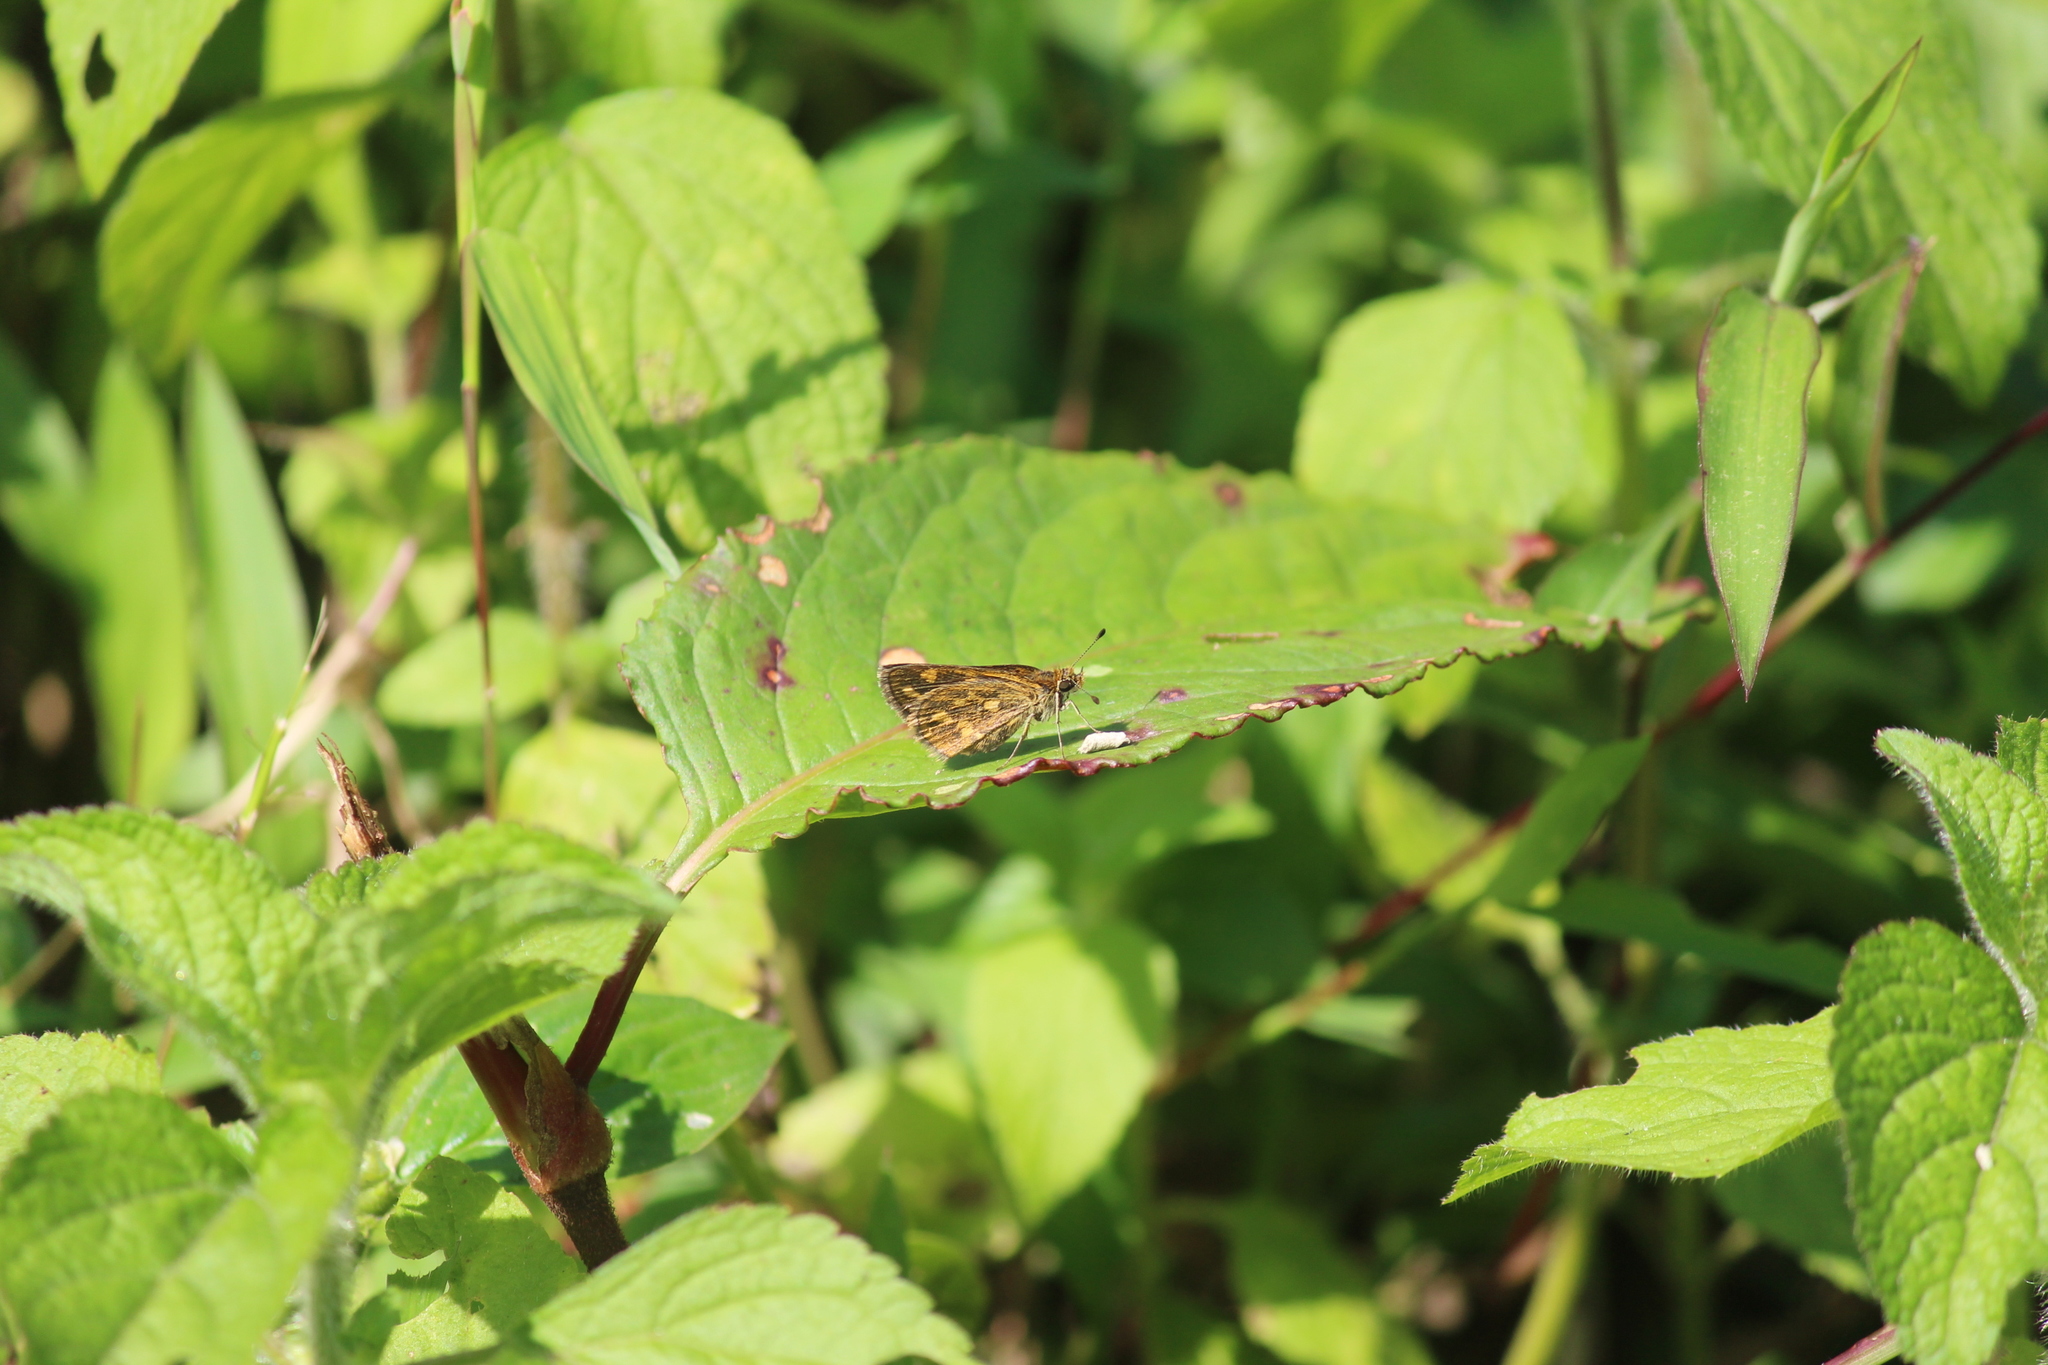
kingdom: Animalia
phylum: Arthropoda
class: Insecta
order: Lepidoptera
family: Hesperiidae
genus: Taractrocera
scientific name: Taractrocera ceramas
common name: Tamil grass dart
